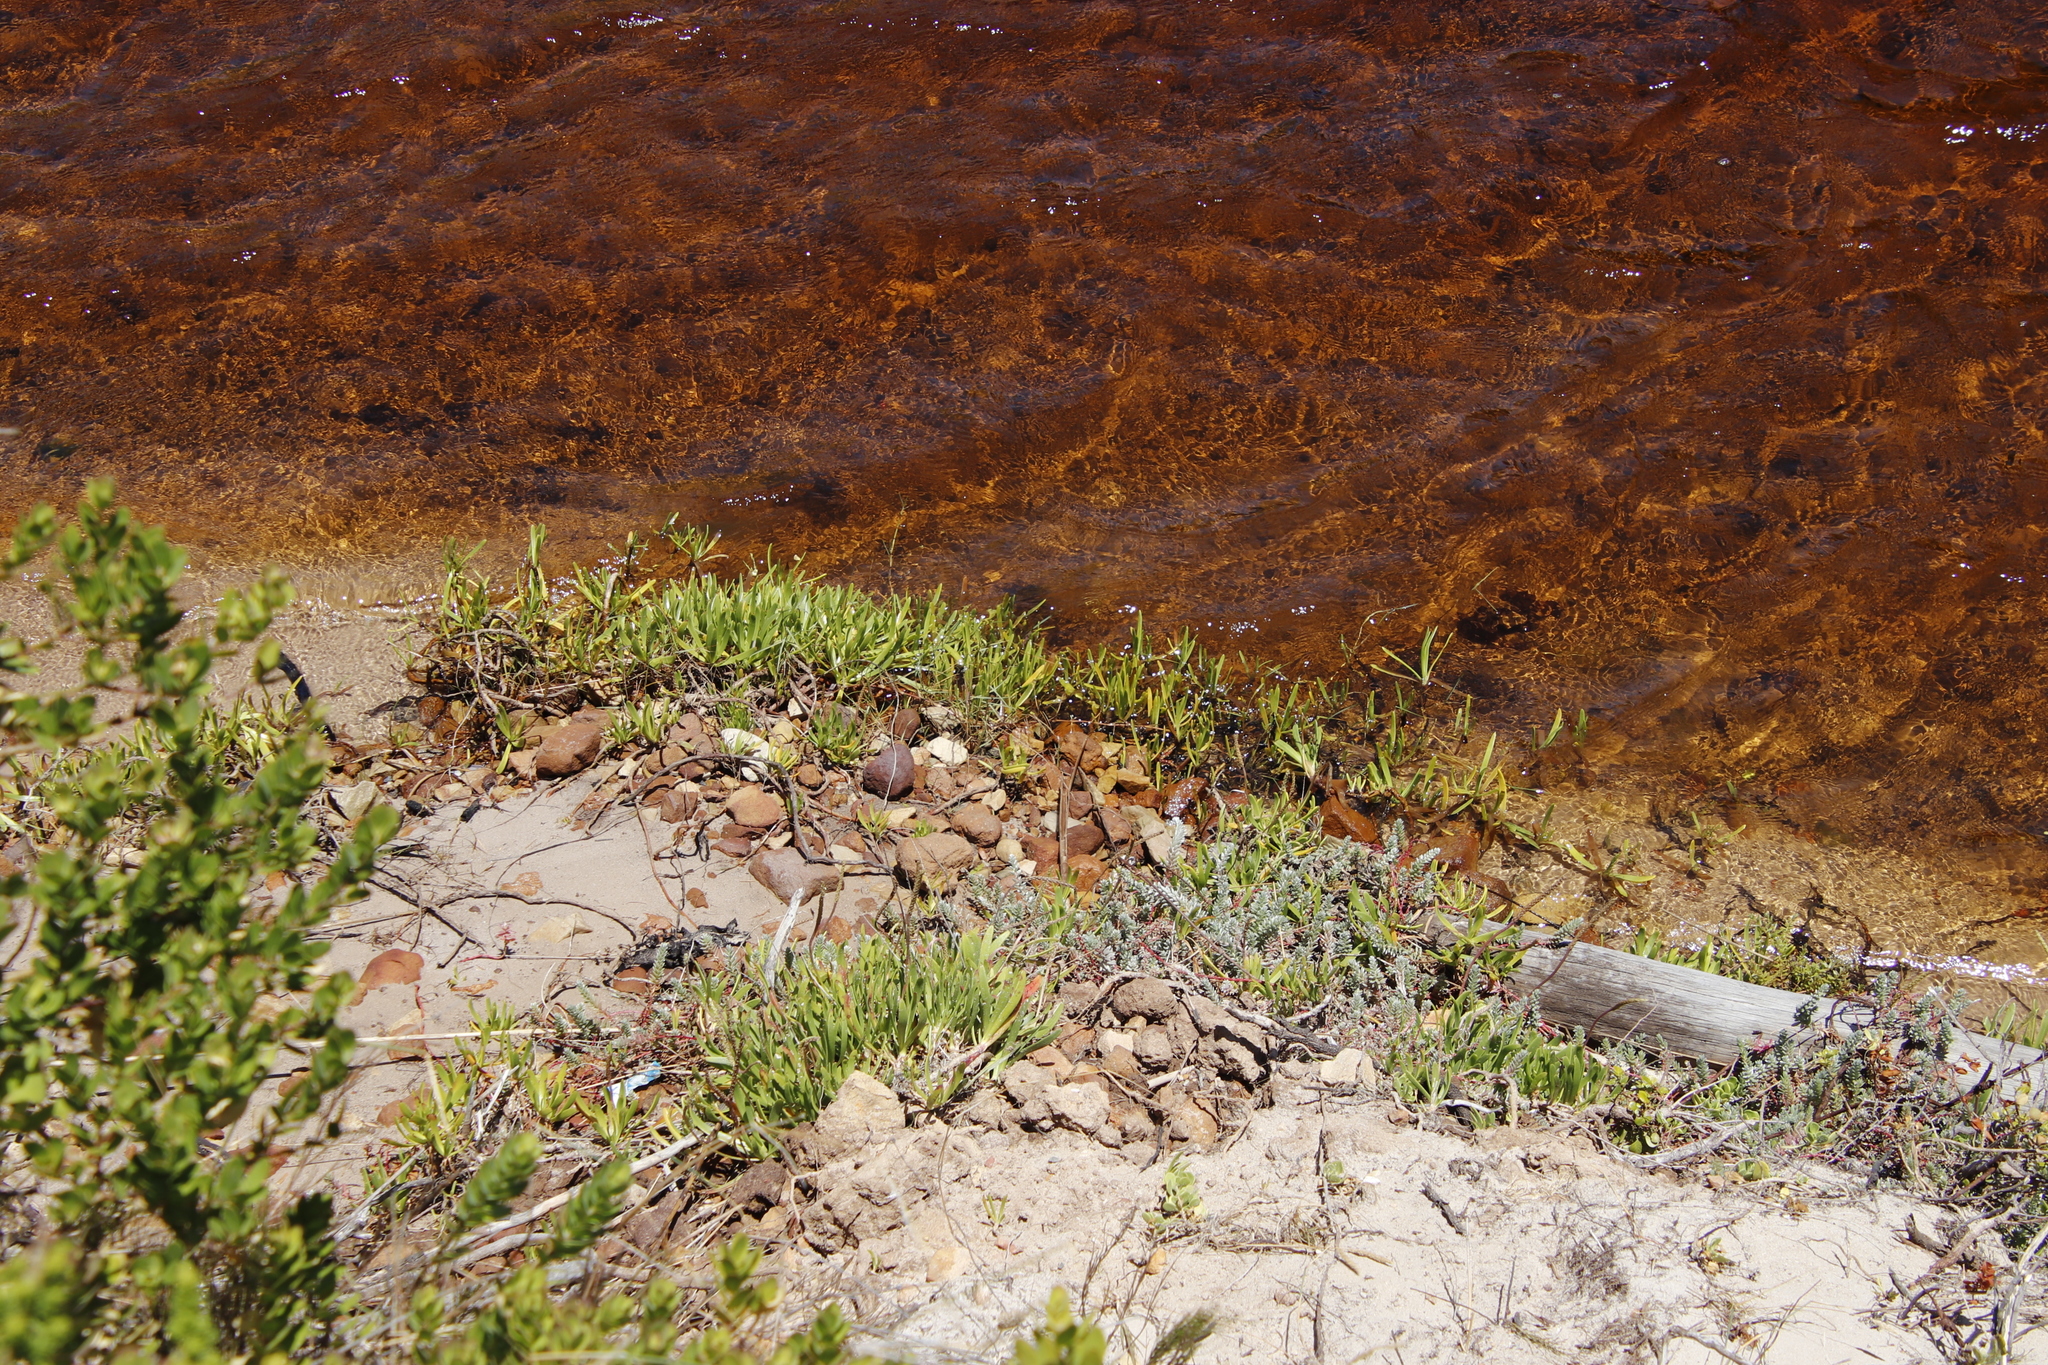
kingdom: Plantae
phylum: Tracheophyta
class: Magnoliopsida
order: Lamiales
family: Plantaginaceae
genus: Plantago
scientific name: Plantago carnosa
